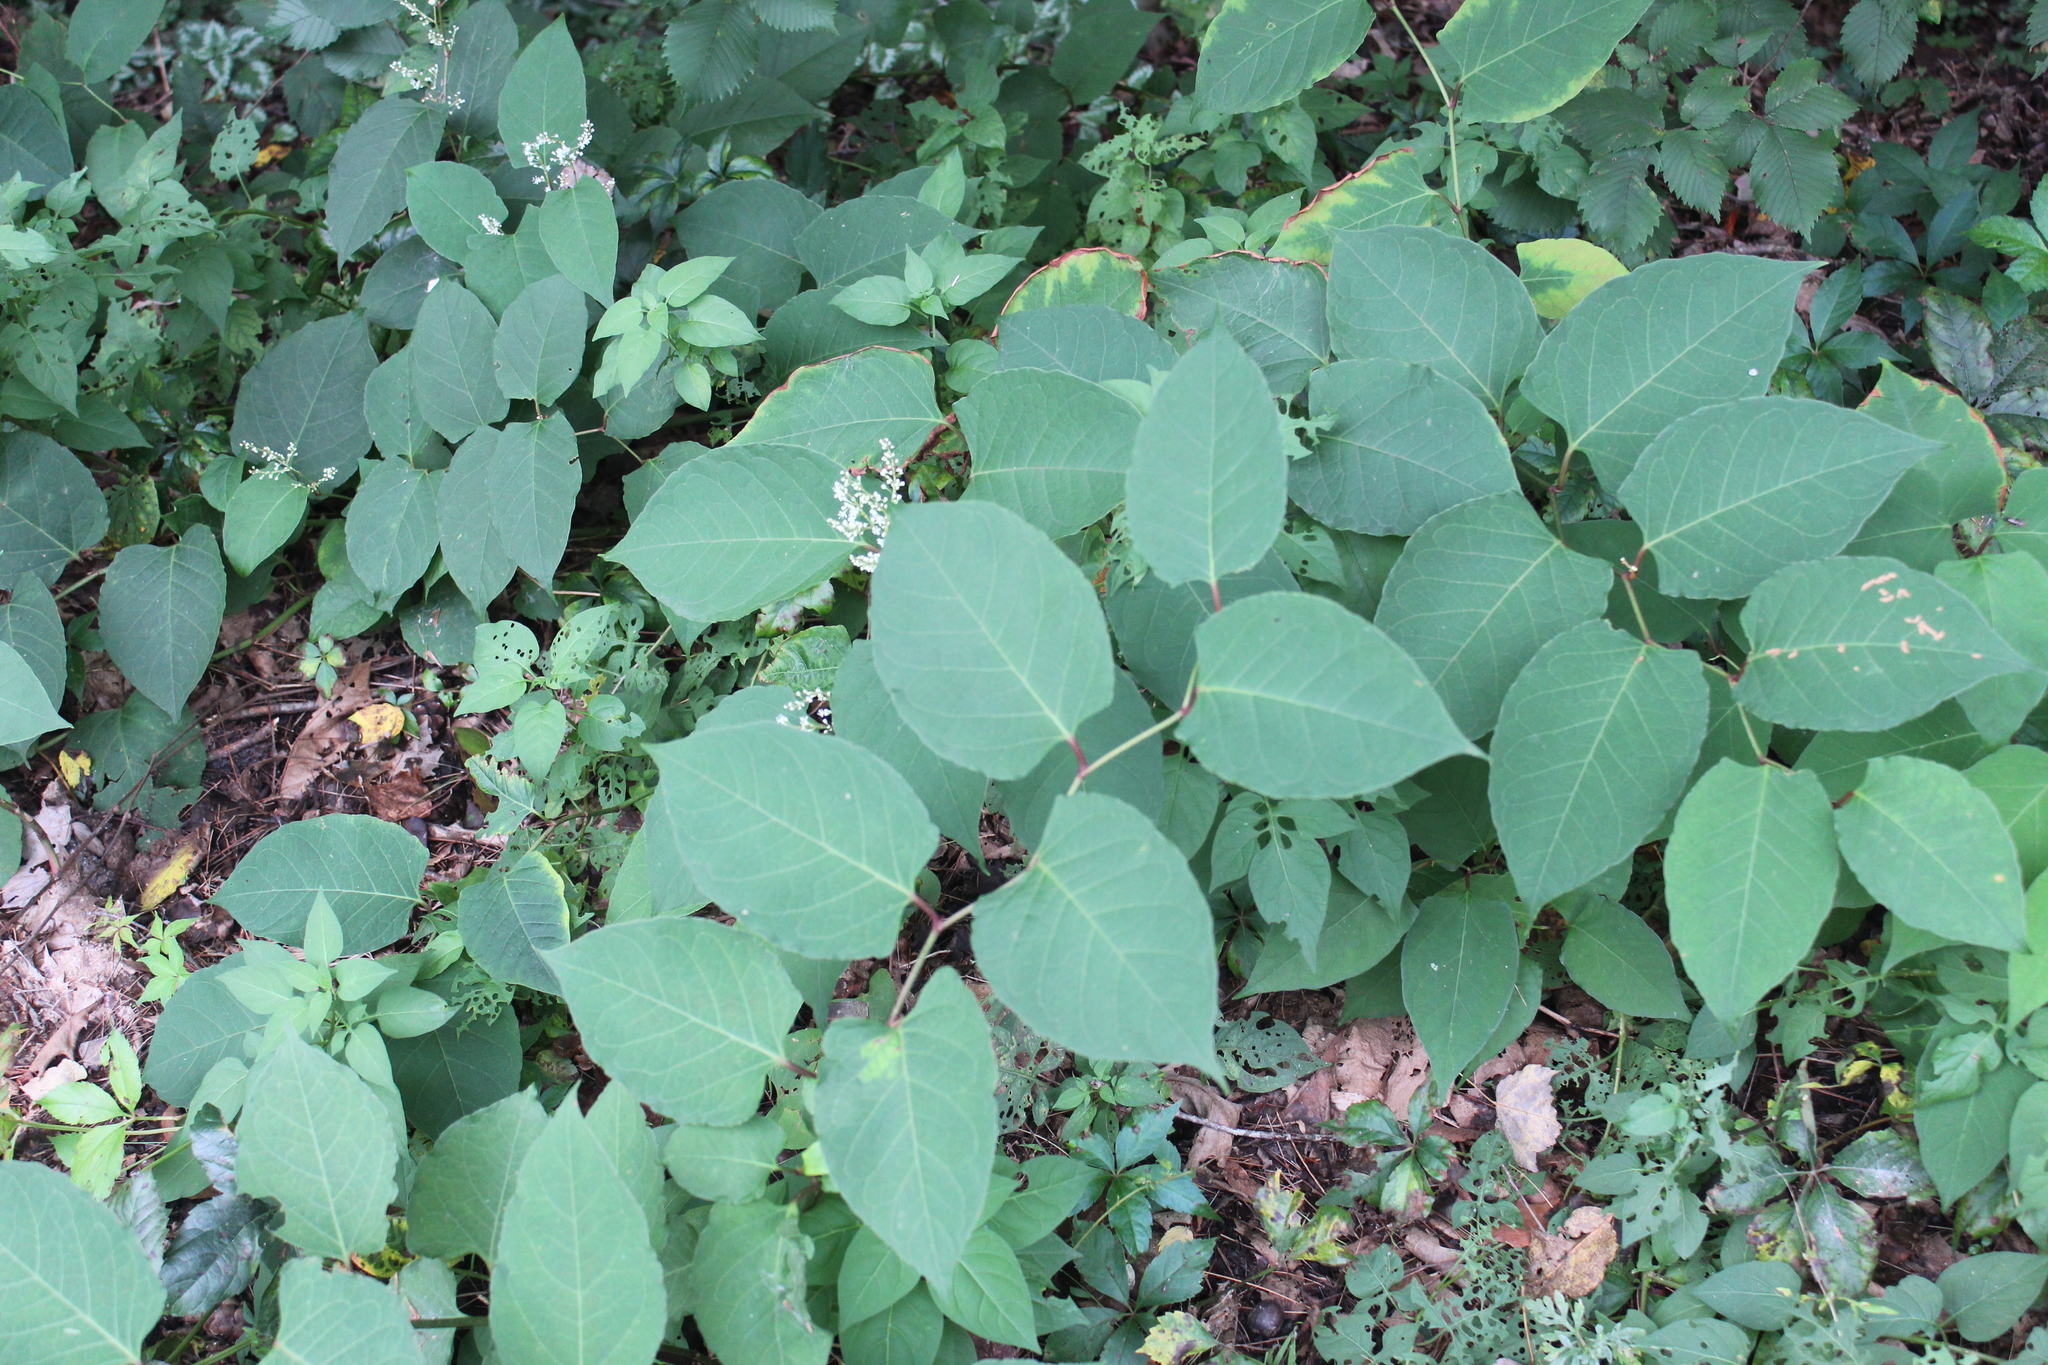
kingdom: Plantae
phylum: Tracheophyta
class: Magnoliopsida
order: Caryophyllales
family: Polygonaceae
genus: Reynoutria
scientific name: Reynoutria japonica
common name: Japanese knotweed
